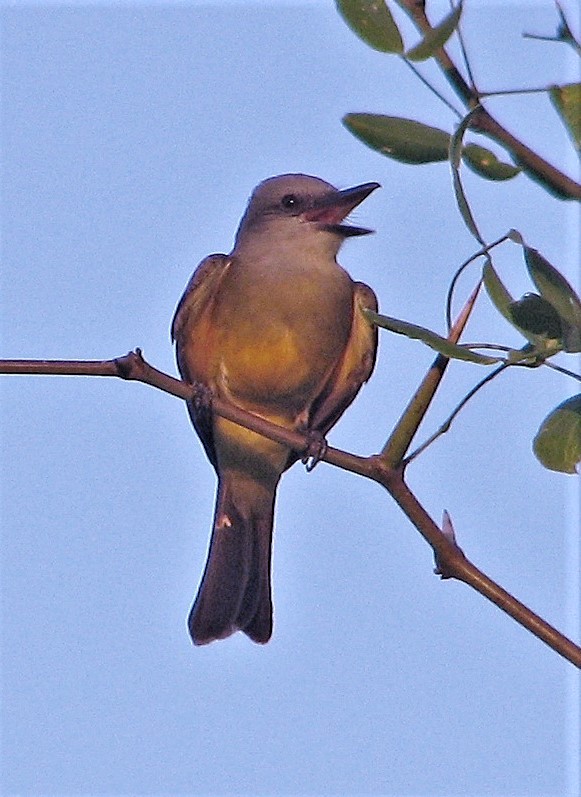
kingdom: Animalia
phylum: Chordata
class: Aves
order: Passeriformes
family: Tyrannidae
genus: Tyrannus
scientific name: Tyrannus melancholicus
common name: Tropical kingbird
